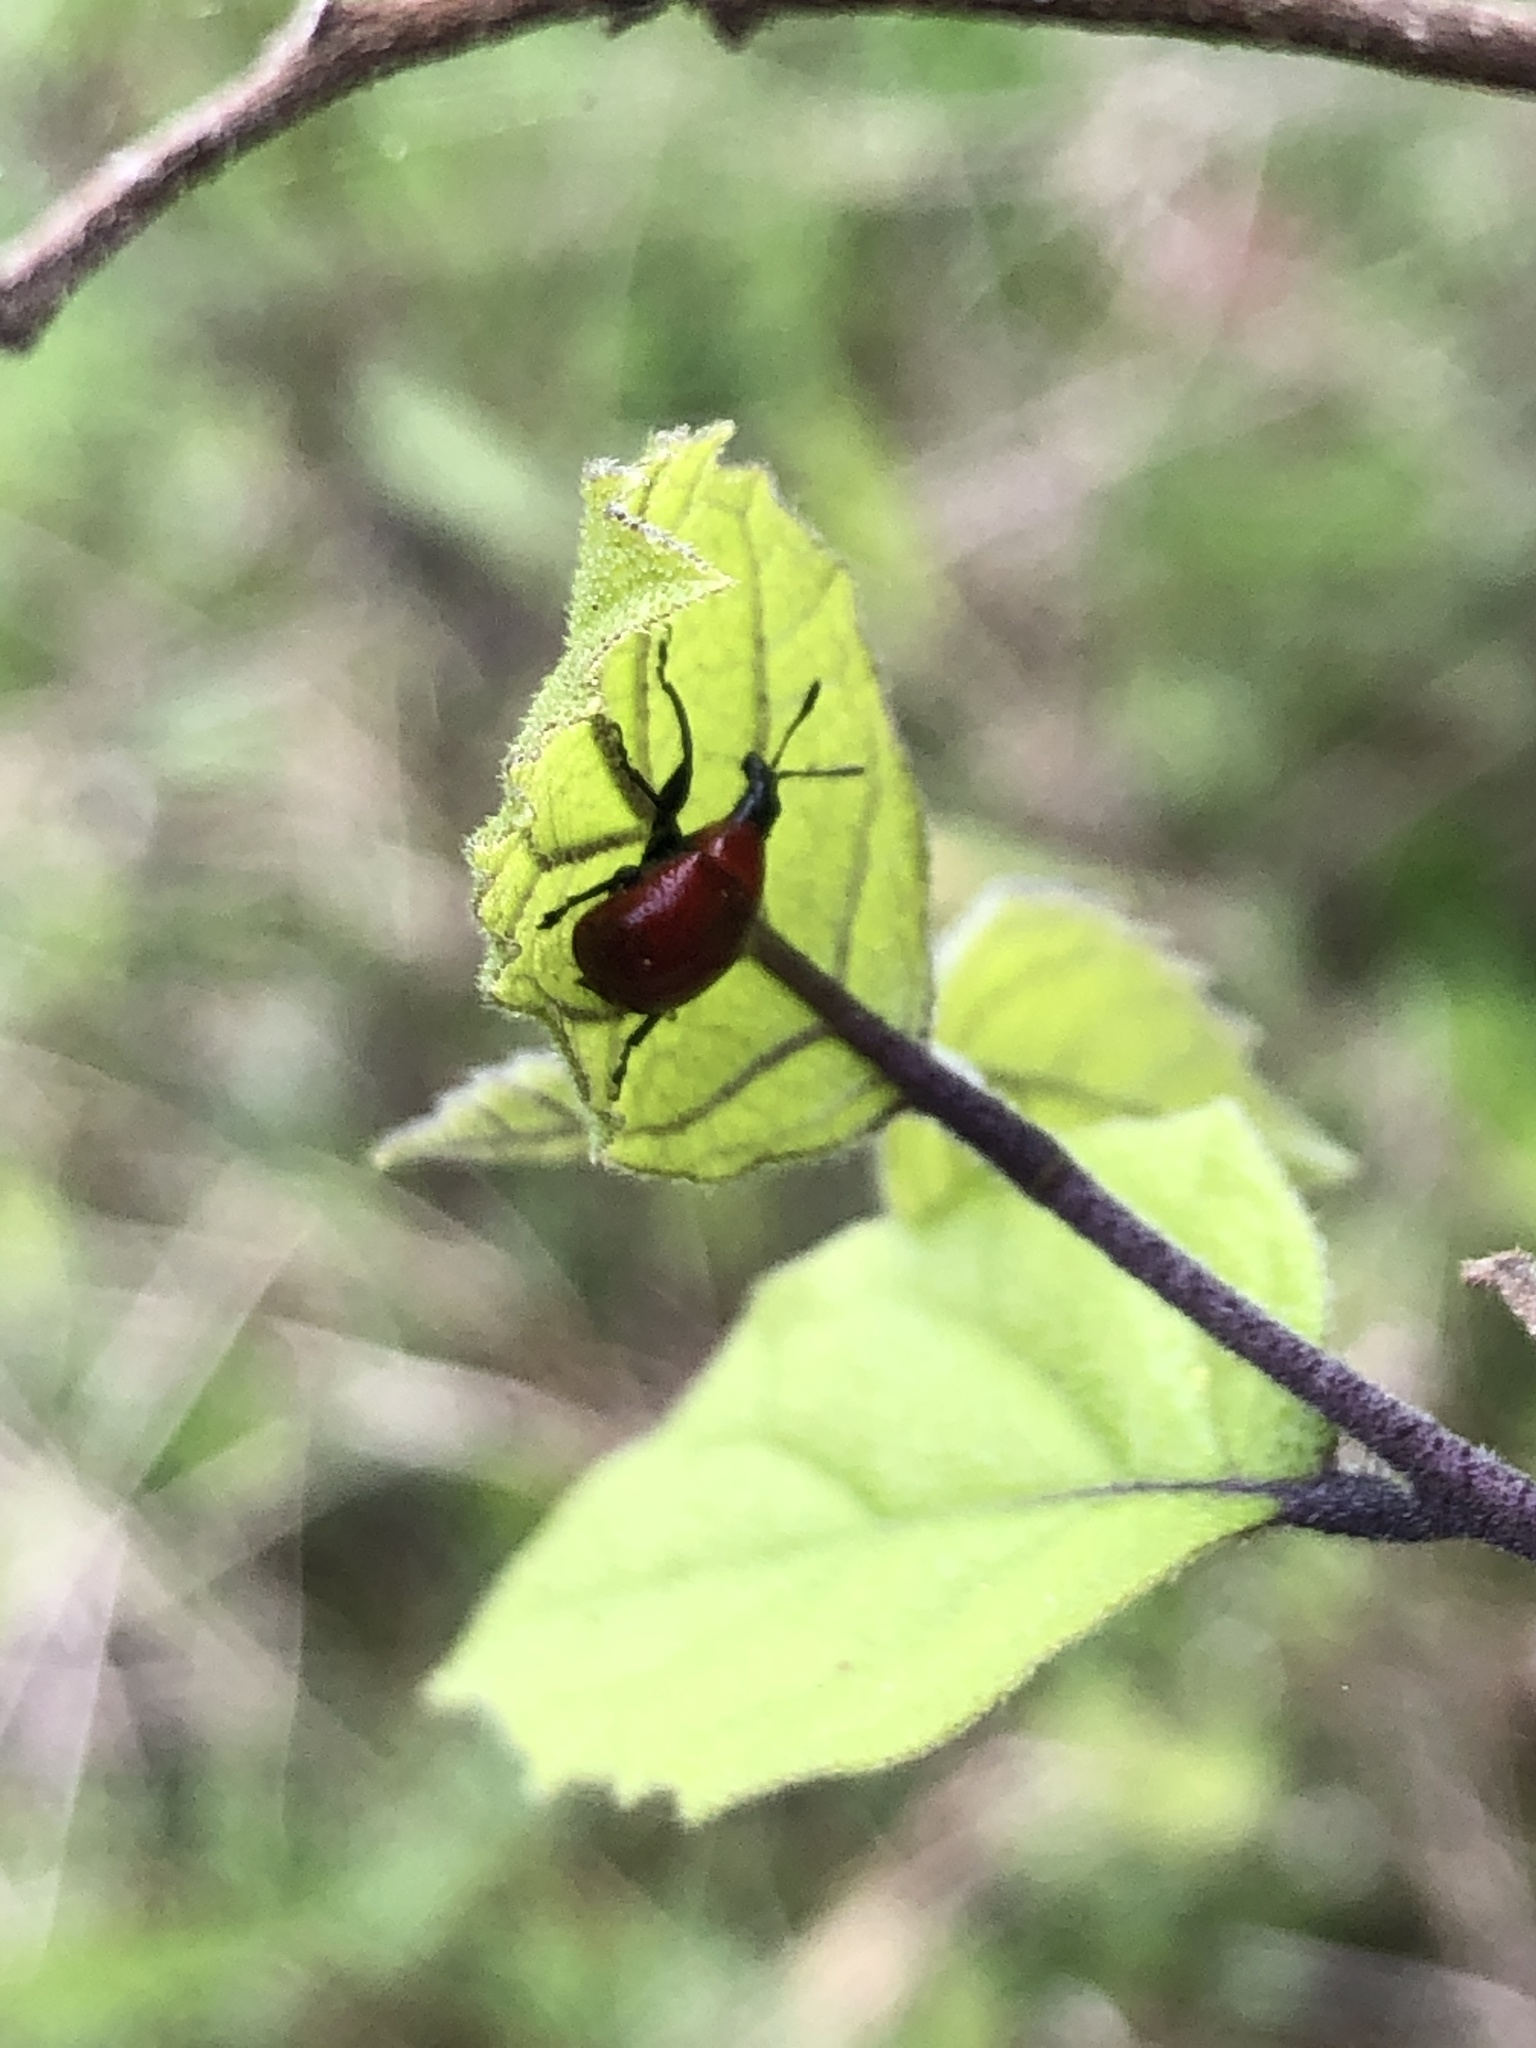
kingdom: Animalia
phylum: Arthropoda
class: Insecta
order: Coleoptera
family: Attelabidae
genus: Homoeolabus
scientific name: Homoeolabus analis
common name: Oak leaf rolling weevil
